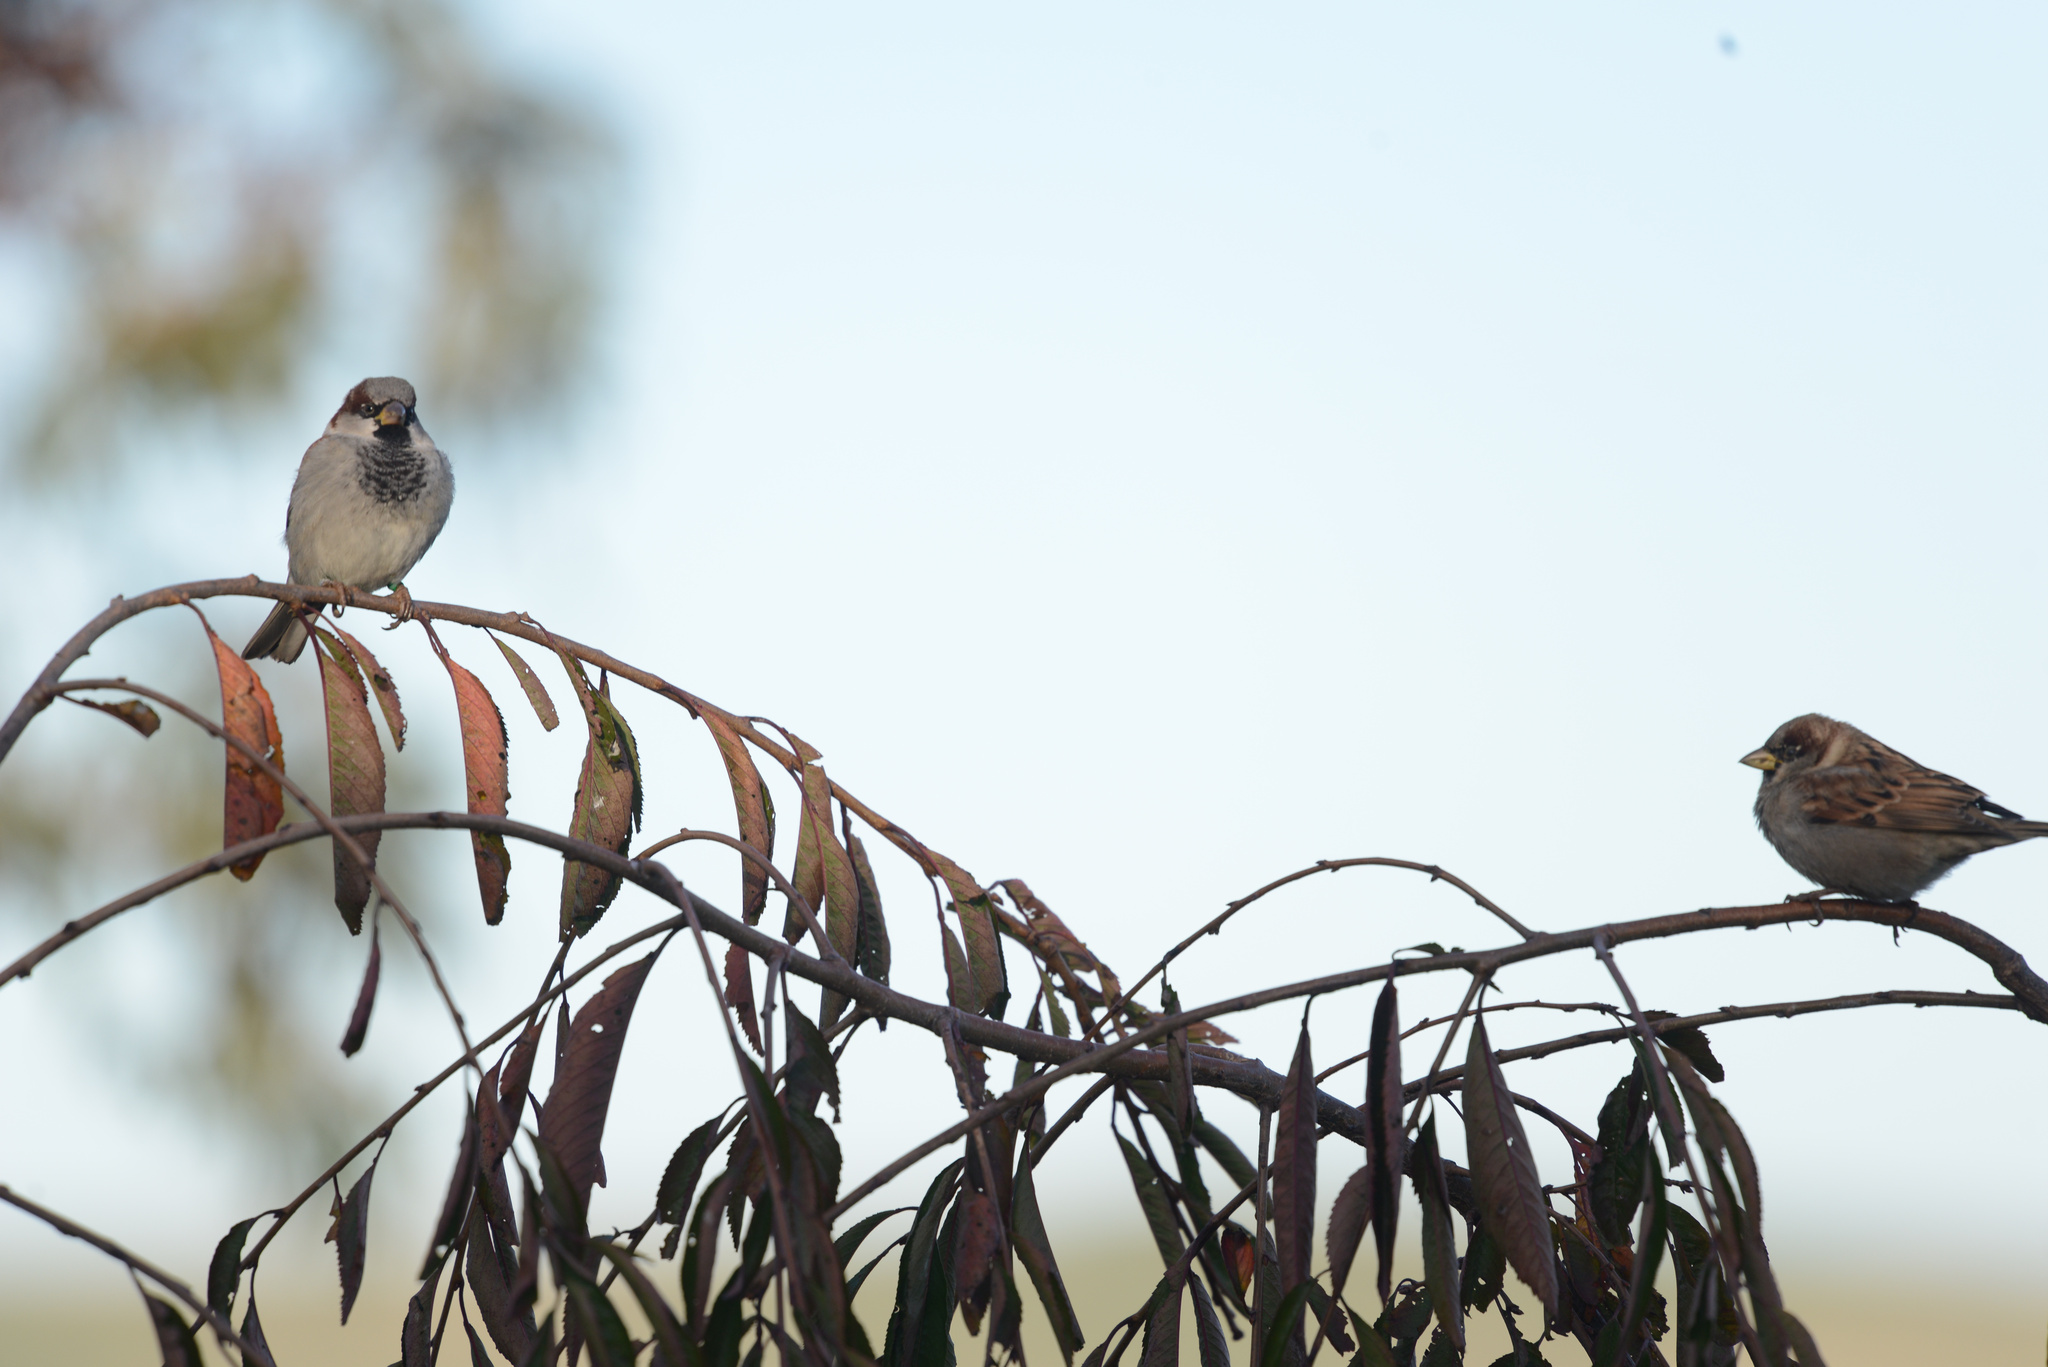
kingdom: Animalia
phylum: Chordata
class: Aves
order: Passeriformes
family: Passeridae
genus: Passer
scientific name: Passer domesticus
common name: House sparrow
